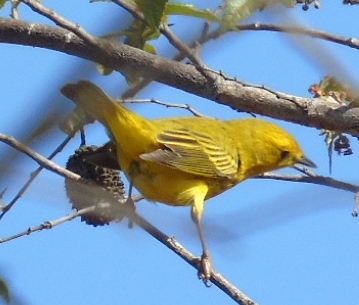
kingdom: Animalia
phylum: Chordata
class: Aves
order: Passeriformes
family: Parulidae
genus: Setophaga
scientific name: Setophaga petechia
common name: Yellow warbler
